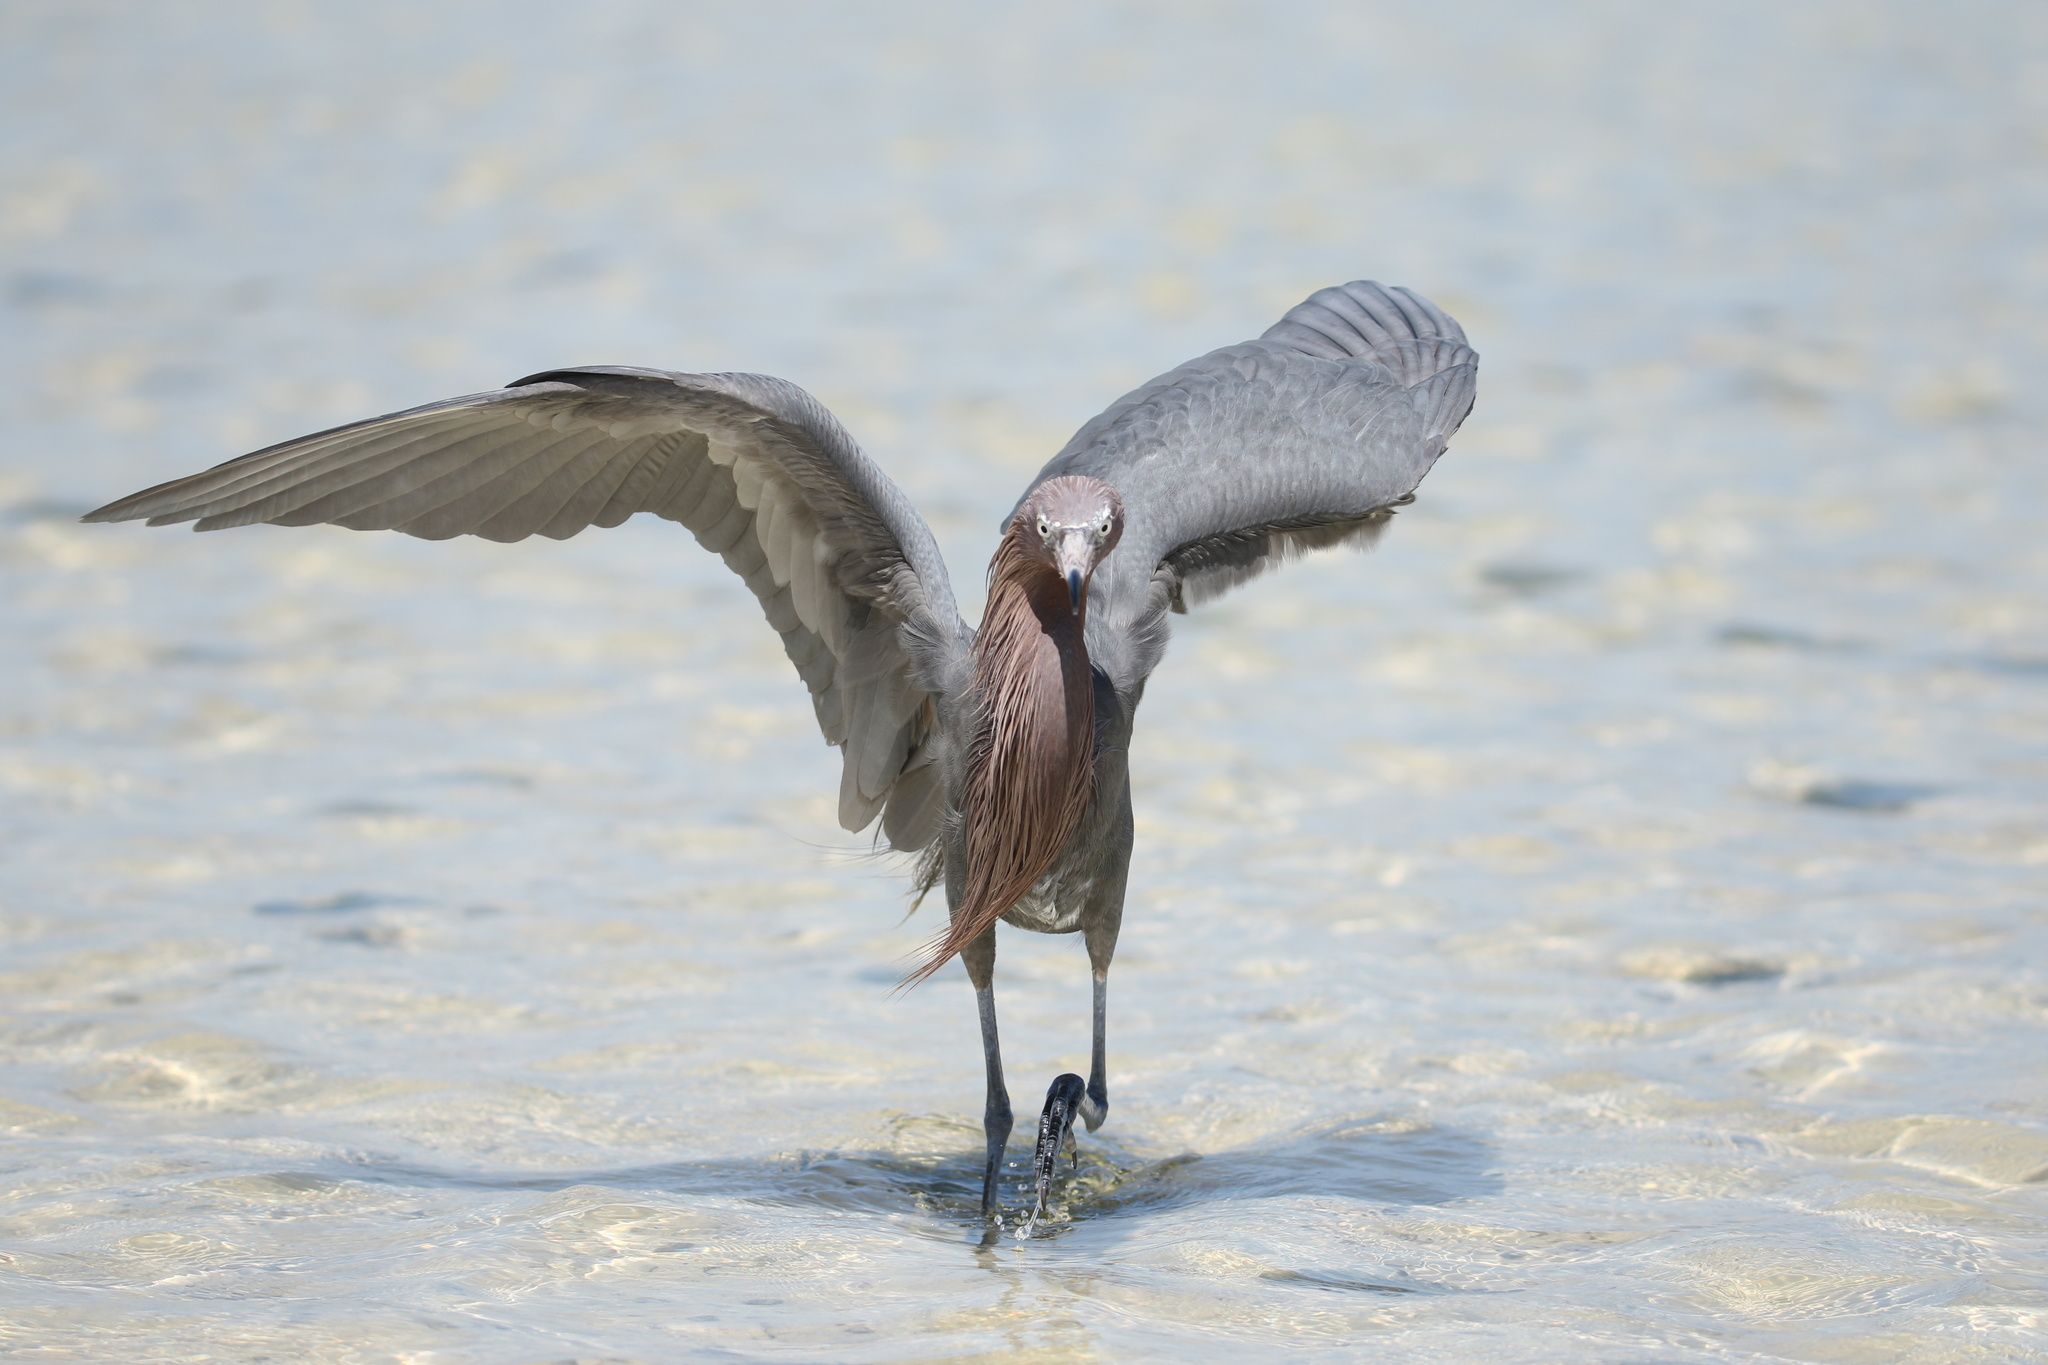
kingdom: Animalia
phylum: Chordata
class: Aves
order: Pelecaniformes
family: Ardeidae
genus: Egretta
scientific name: Egretta rufescens
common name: Reddish egret
